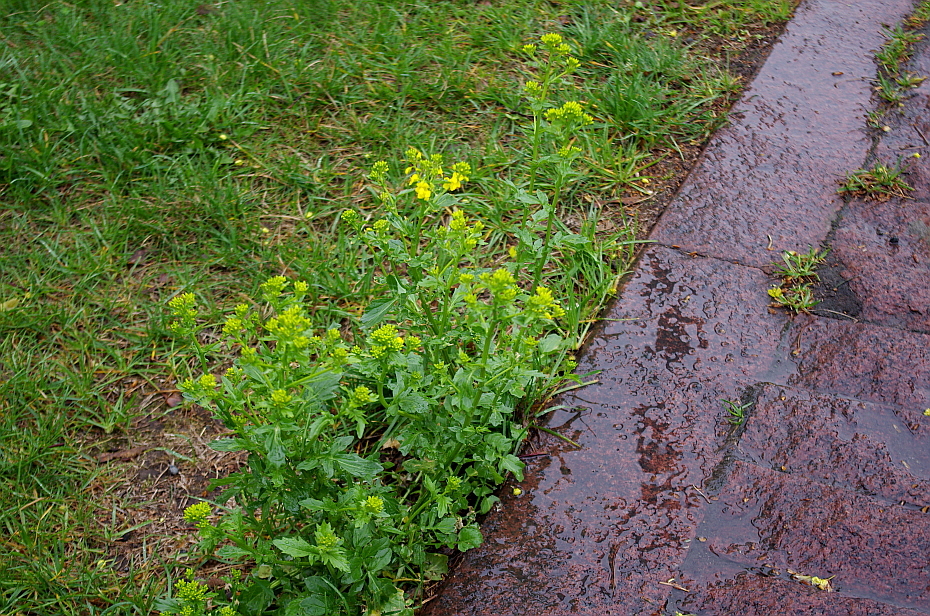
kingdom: Plantae
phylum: Tracheophyta
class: Magnoliopsida
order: Brassicales
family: Brassicaceae
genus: Barbarea
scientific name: Barbarea vulgaris
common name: Cressy-greens
